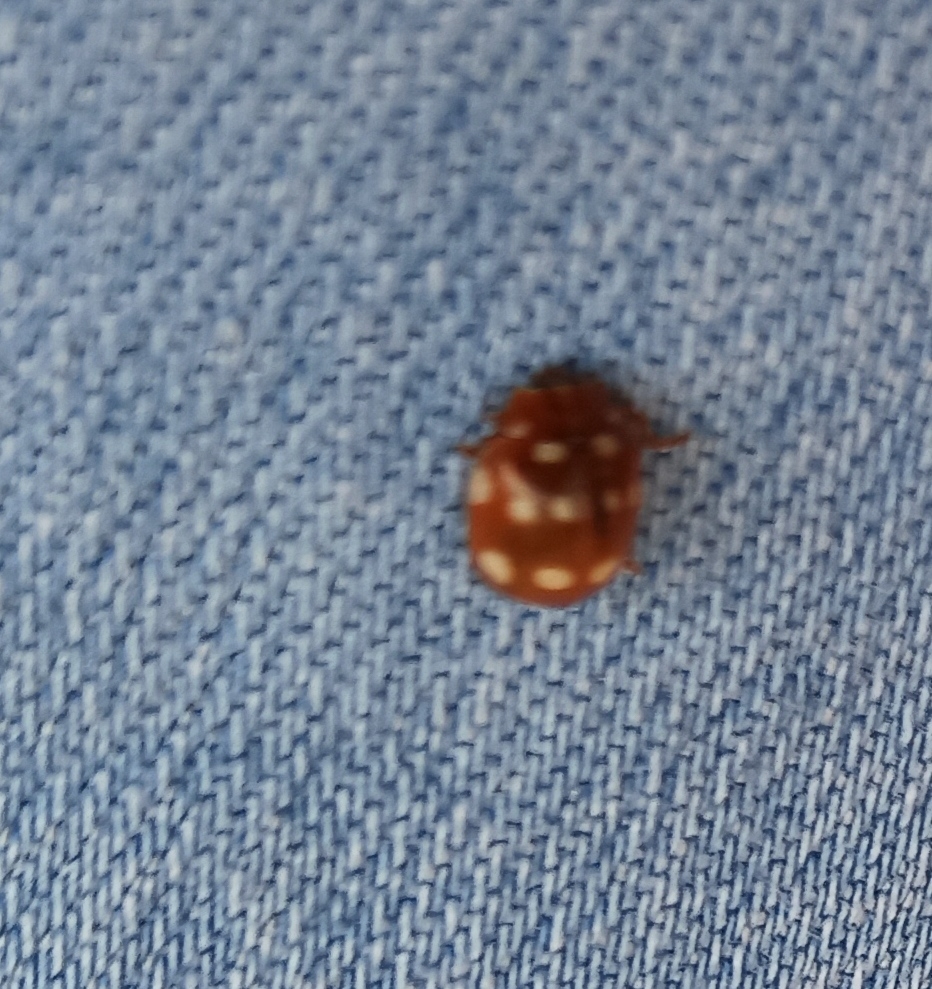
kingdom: Animalia
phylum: Arthropoda
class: Insecta
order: Coleoptera
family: Coccinellidae
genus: Calvia
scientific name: Calvia quatuordecimguttata
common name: Cream-spot ladybird
